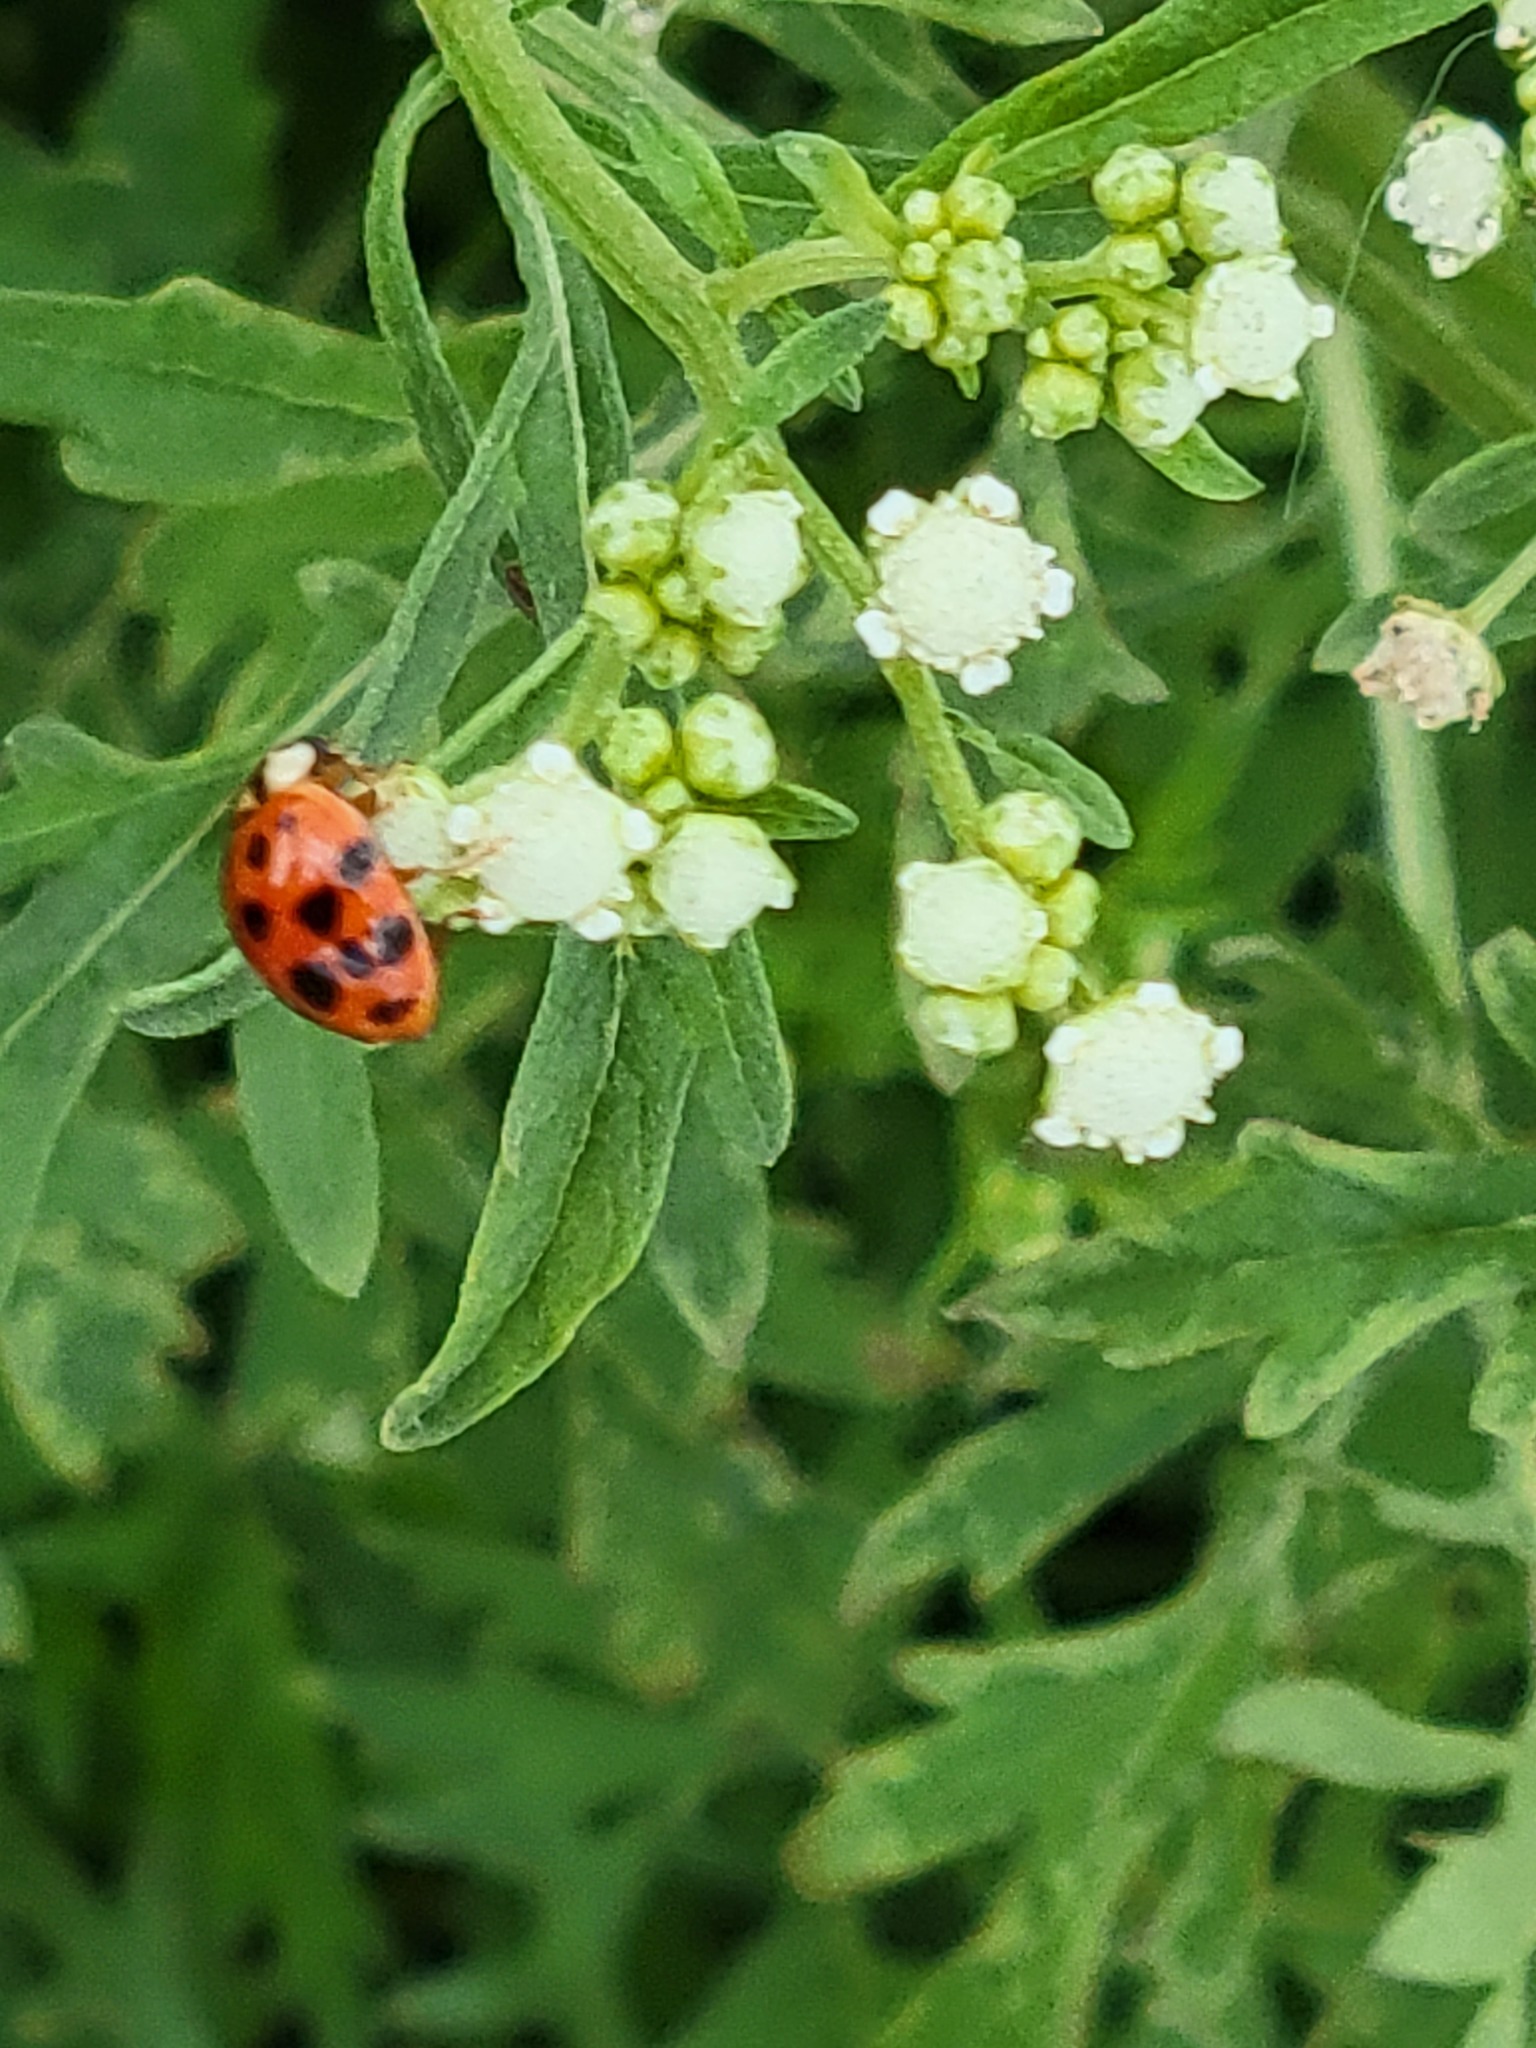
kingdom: Animalia
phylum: Arthropoda
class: Insecta
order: Coleoptera
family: Coccinellidae
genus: Harmonia
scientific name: Harmonia axyridis
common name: Harlequin ladybird
